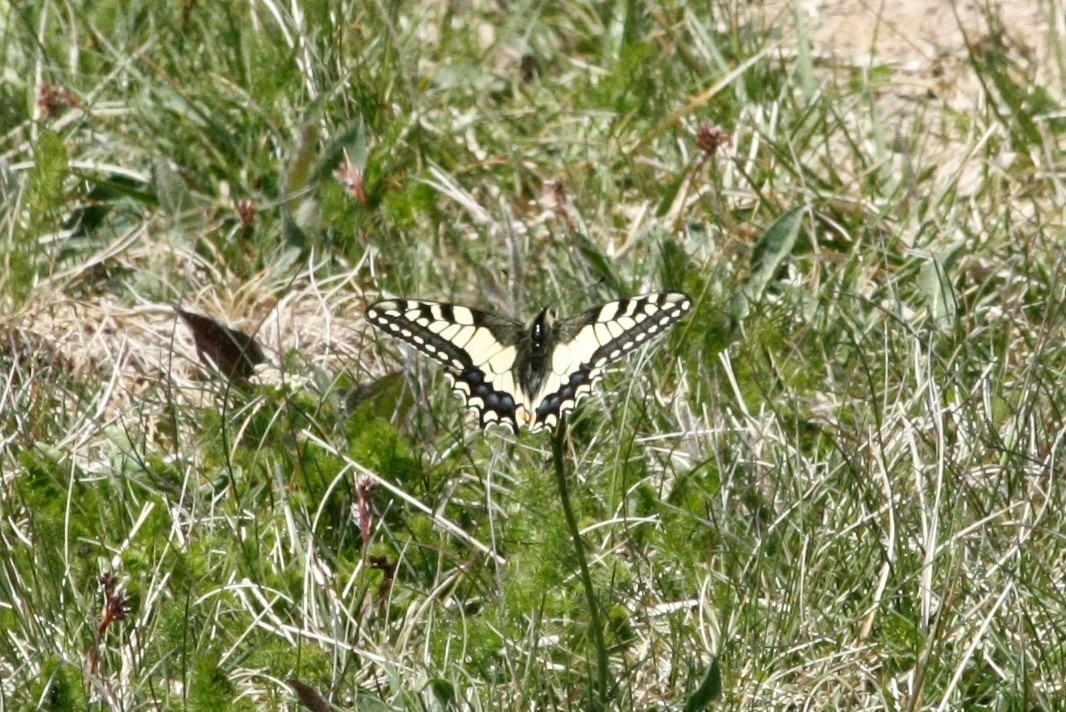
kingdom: Animalia
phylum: Arthropoda
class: Insecta
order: Lepidoptera
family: Papilionidae
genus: Papilio
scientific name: Papilio machaon
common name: Swallowtail
